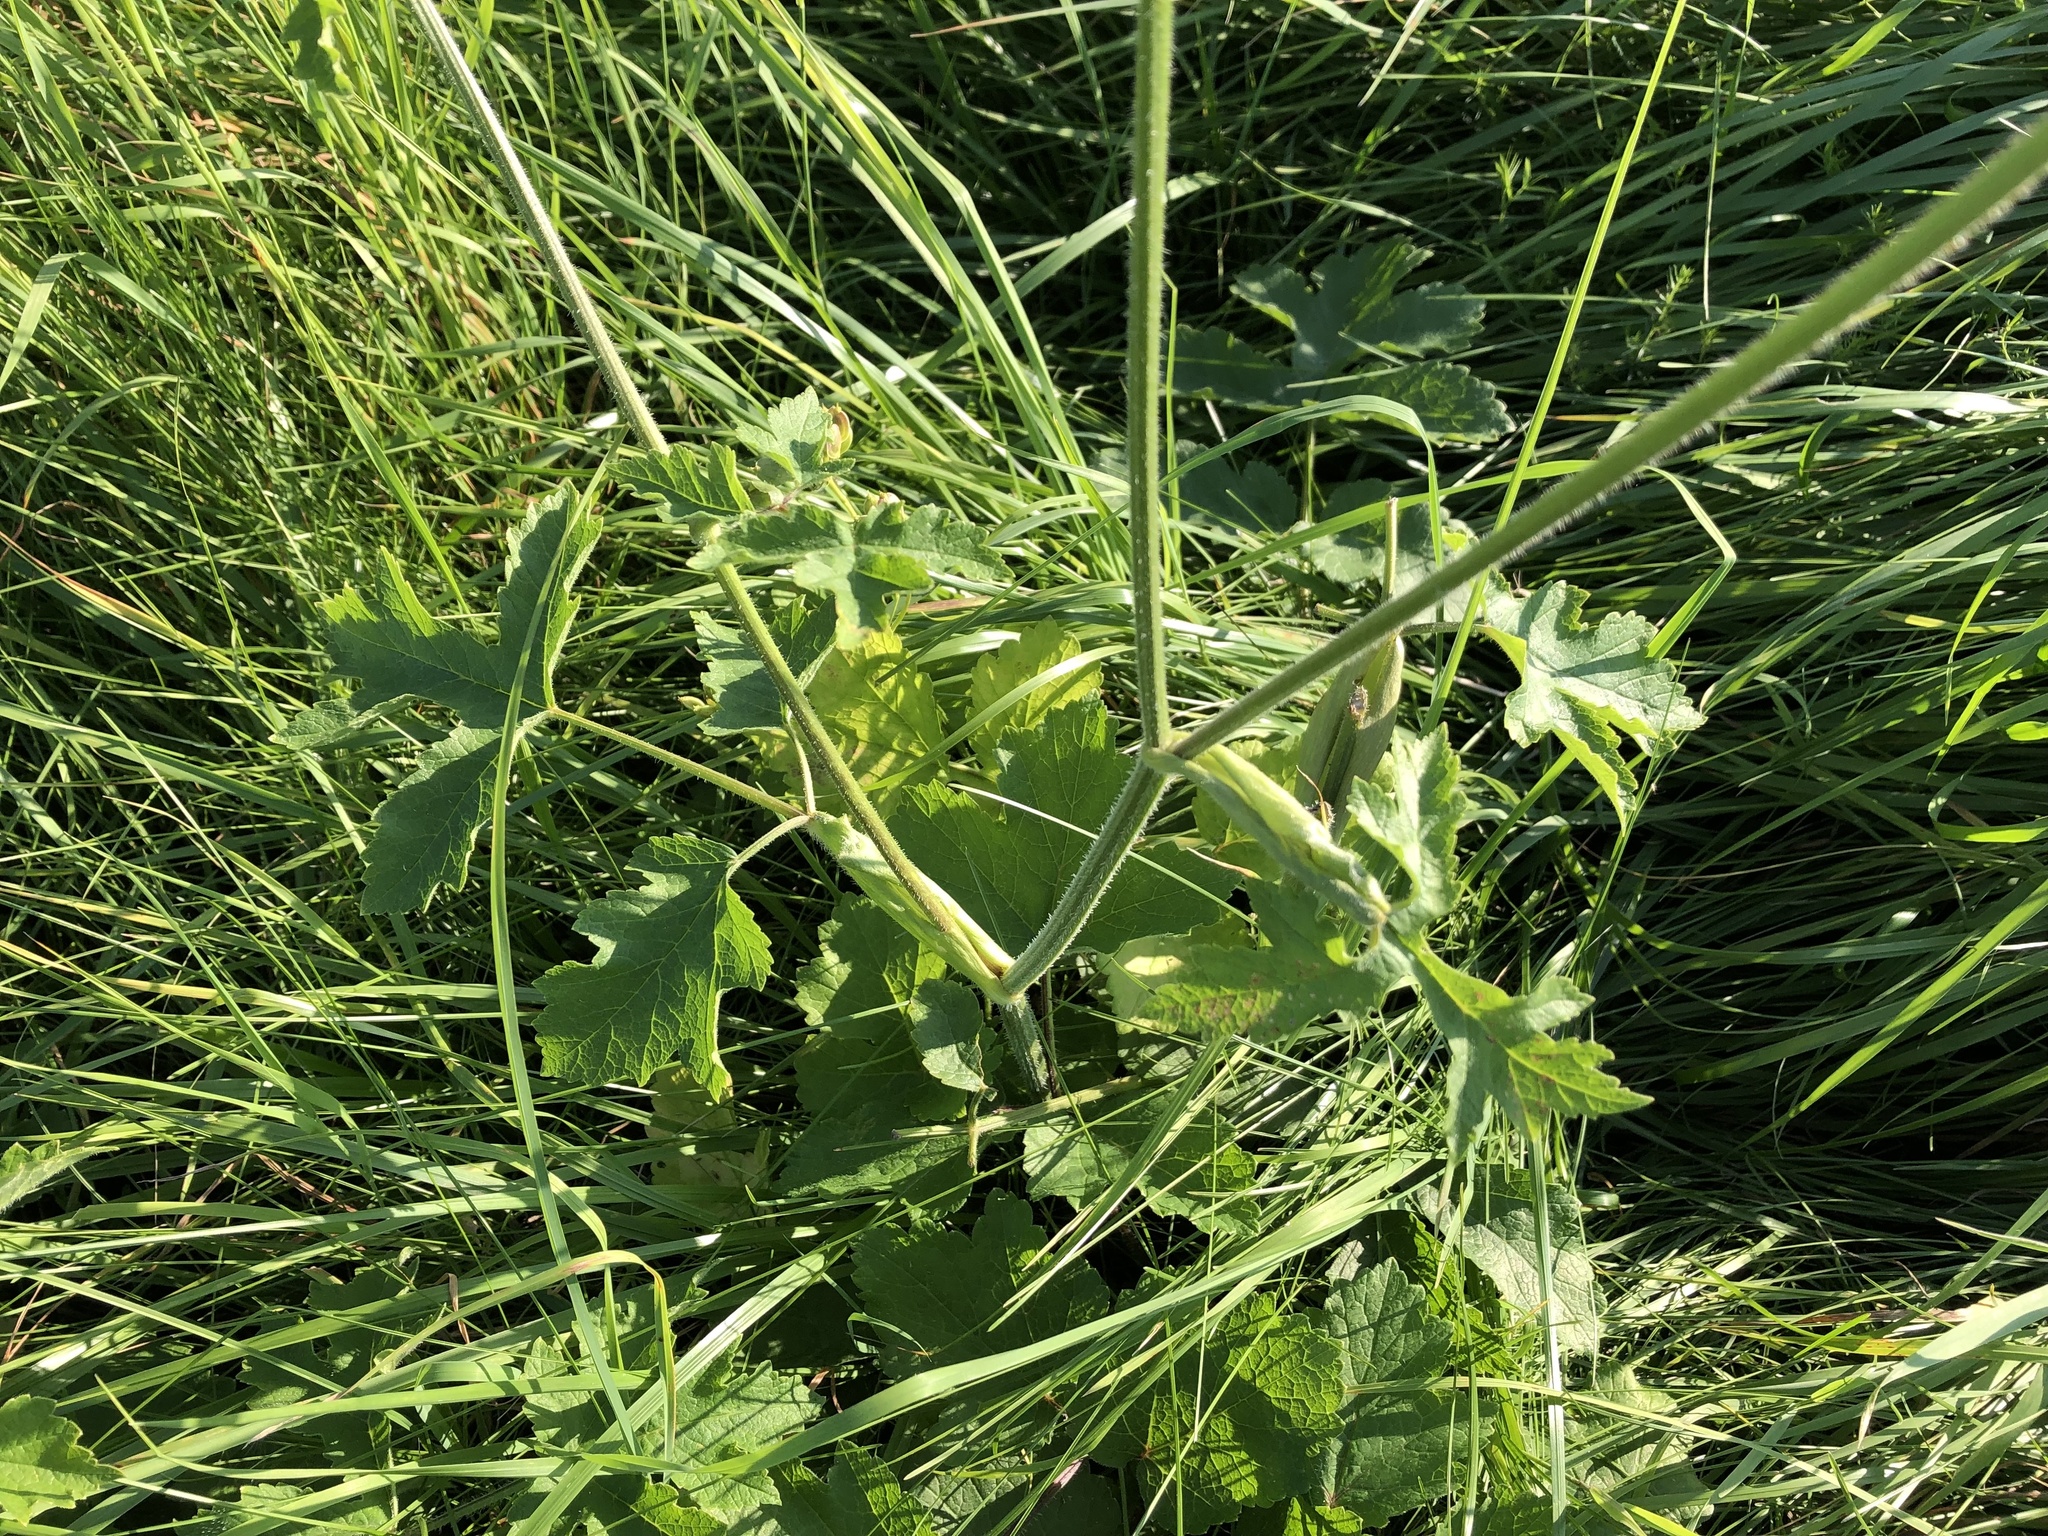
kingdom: Plantae
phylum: Tracheophyta
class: Magnoliopsida
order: Apiales
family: Apiaceae
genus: Heracleum
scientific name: Heracleum sphondylium
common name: Hogweed
